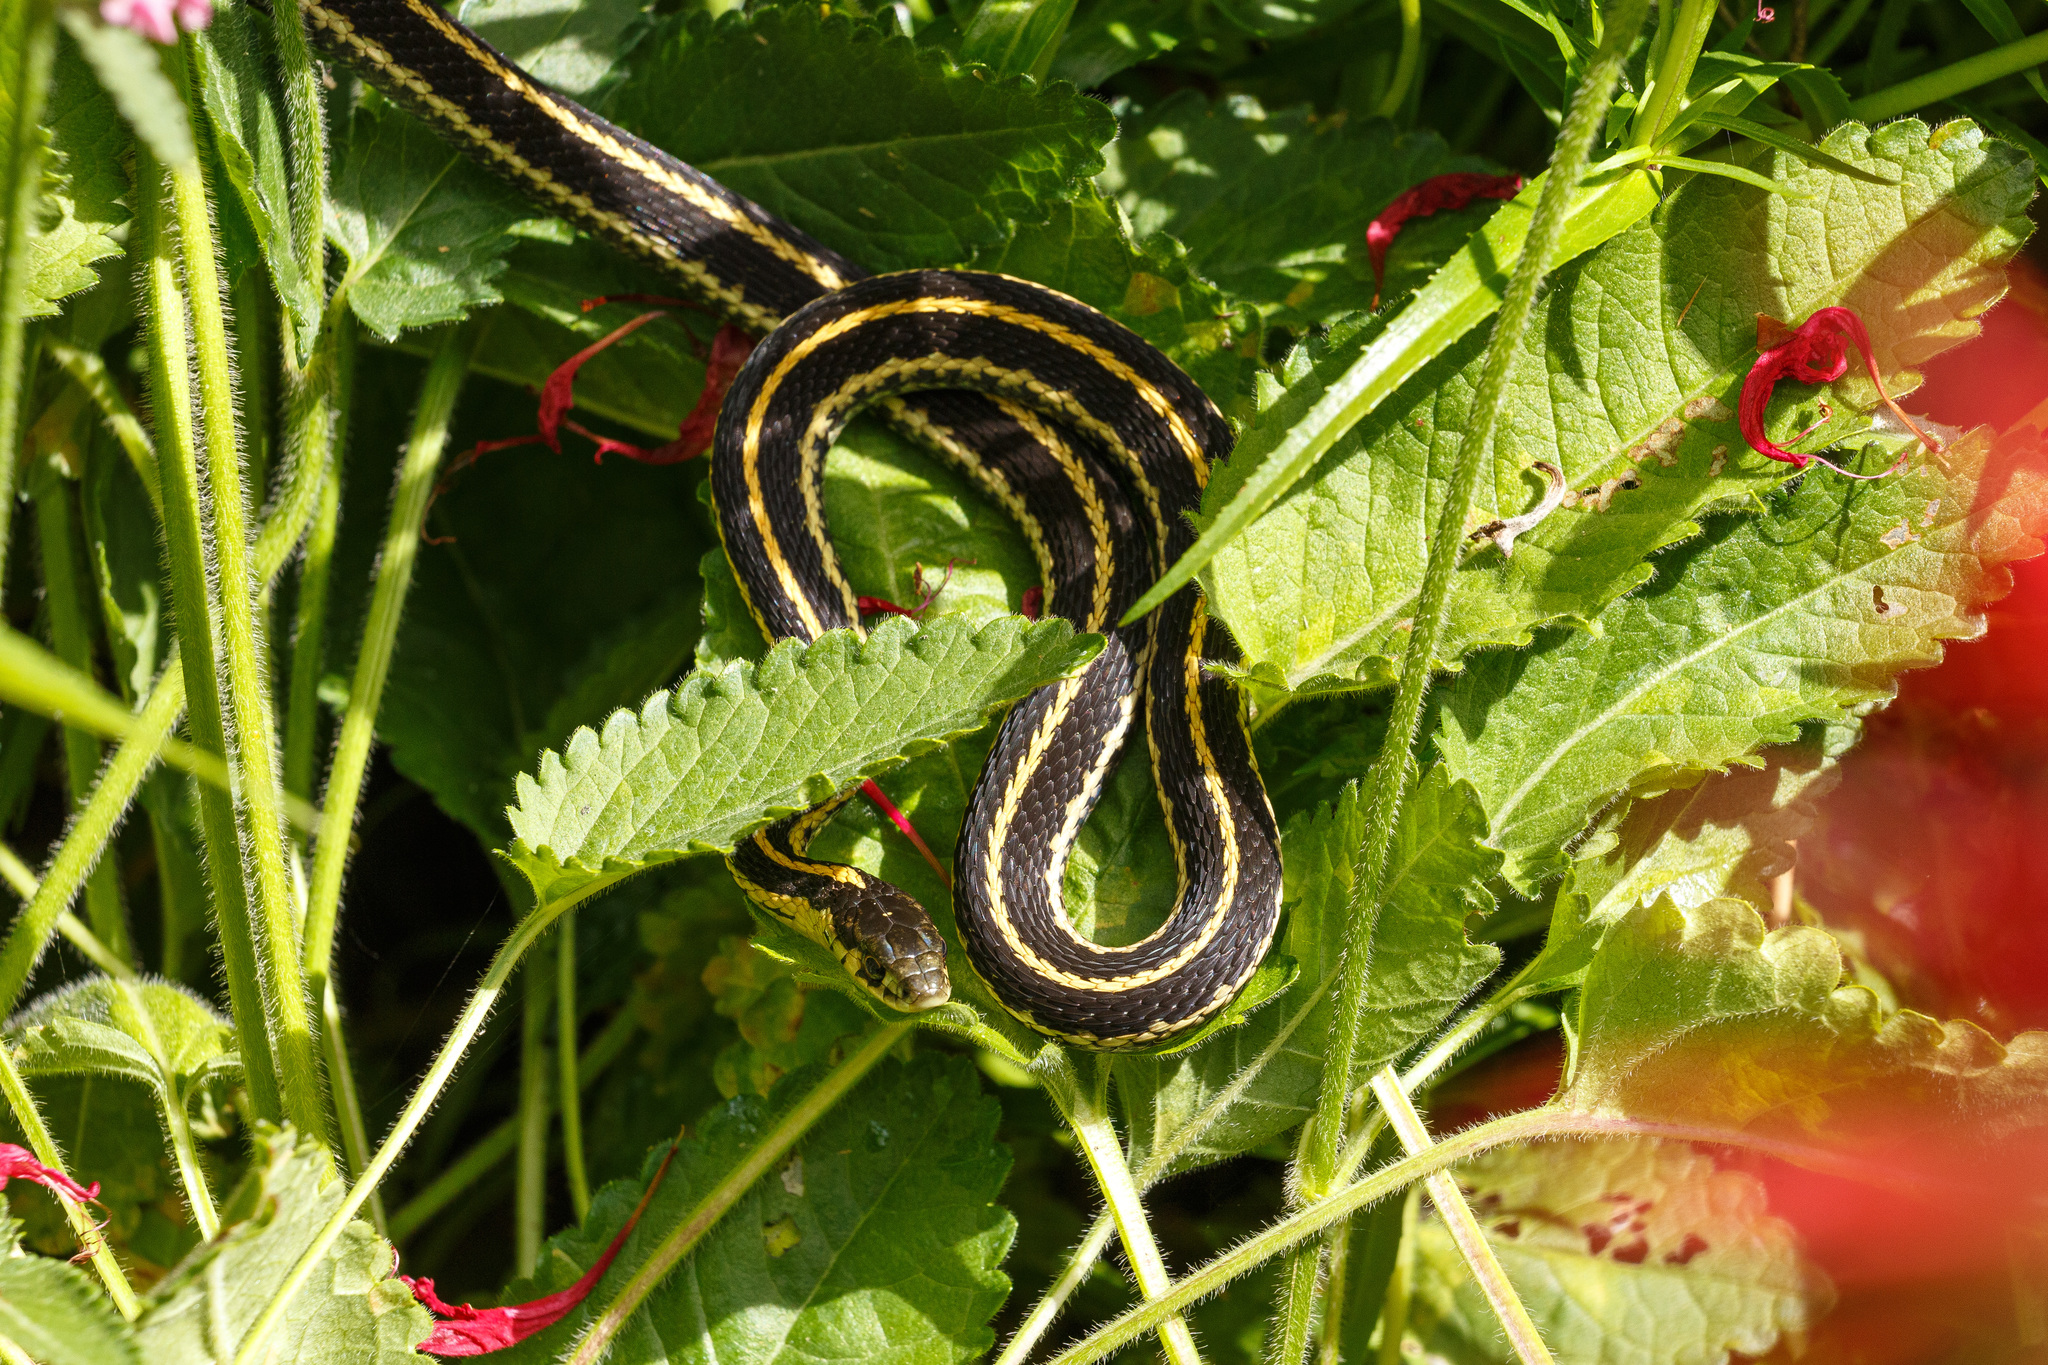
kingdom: Animalia
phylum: Chordata
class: Squamata
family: Colubridae
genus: Thamnophis
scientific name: Thamnophis ordinoides
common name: Northwestern garter snake
